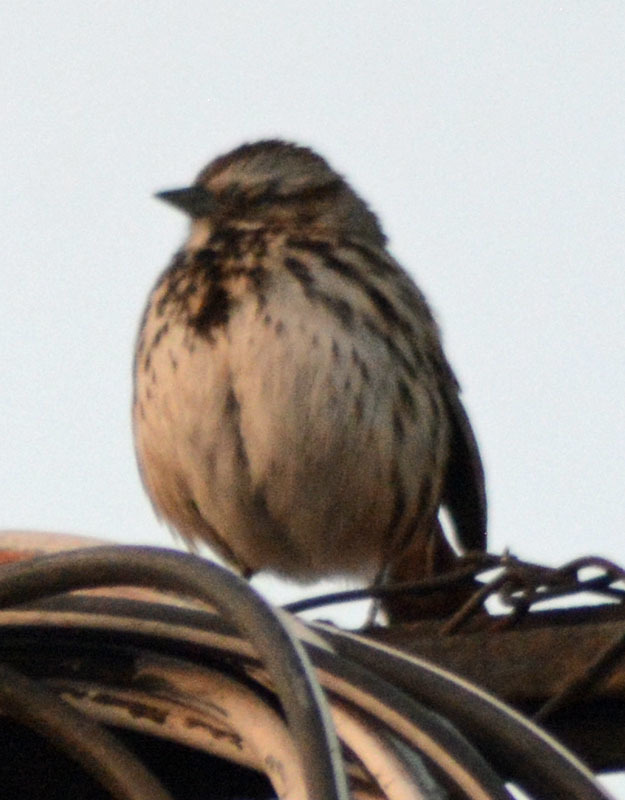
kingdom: Animalia
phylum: Chordata
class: Aves
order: Passeriformes
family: Passerellidae
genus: Melospiza
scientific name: Melospiza melodia
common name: Song sparrow
